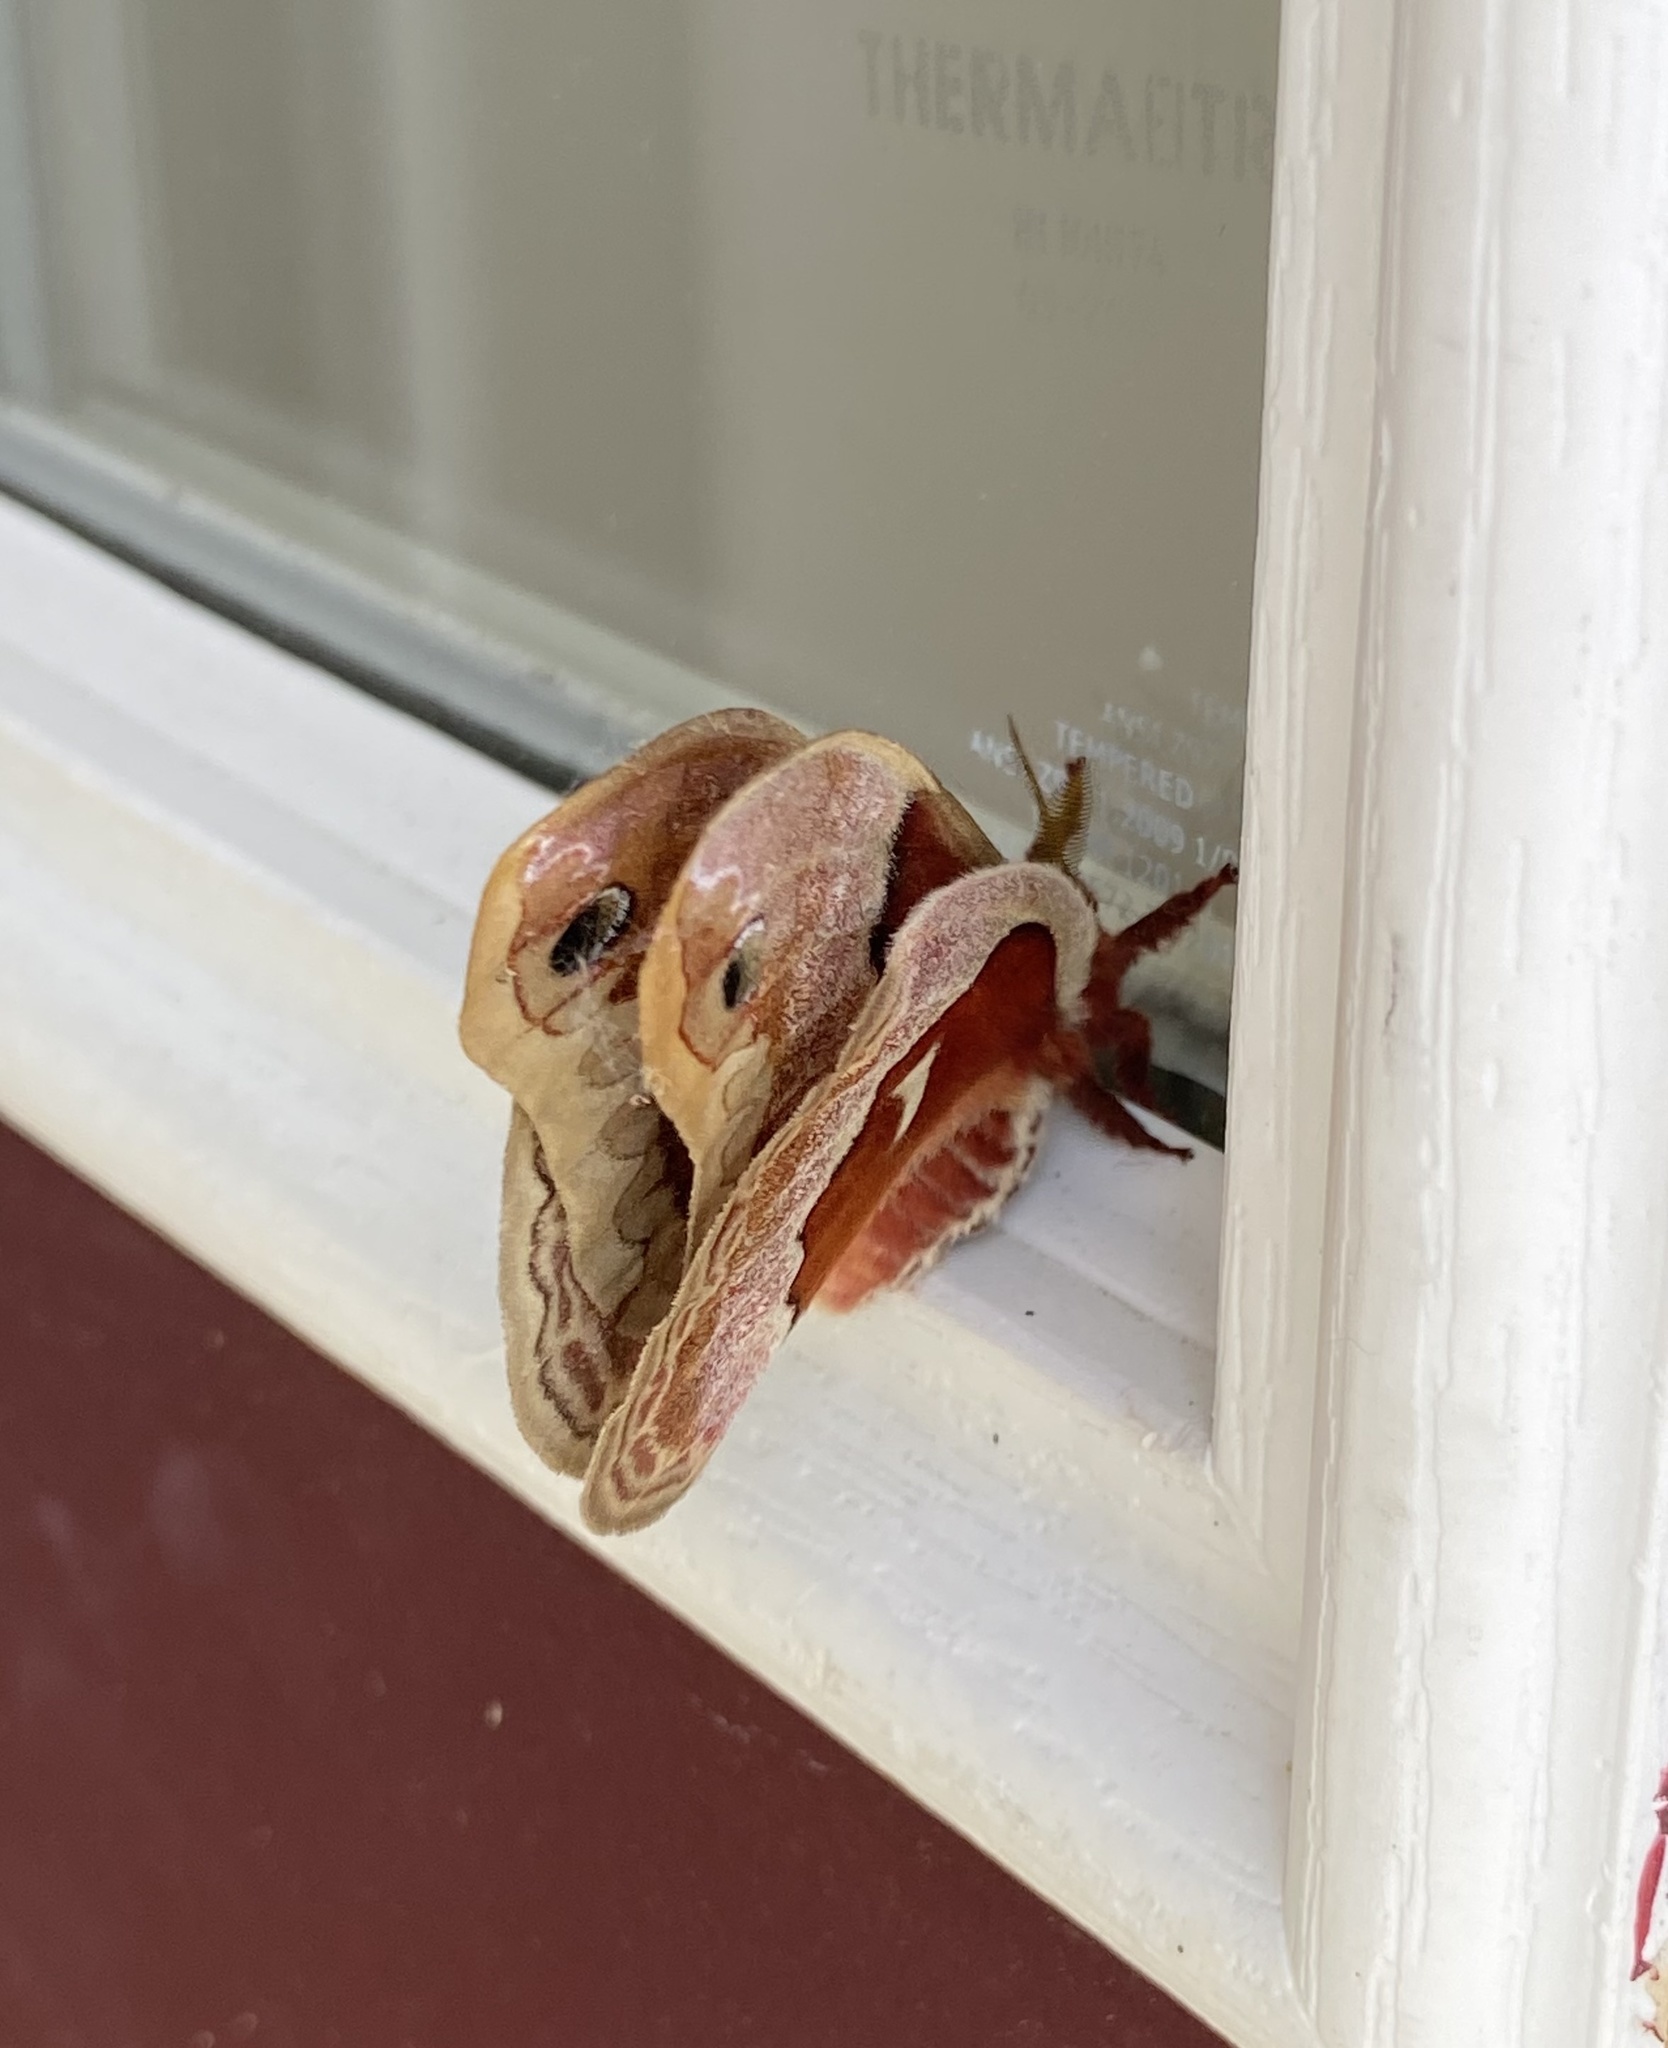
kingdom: Animalia
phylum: Arthropoda
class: Insecta
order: Lepidoptera
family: Saturniidae
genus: Callosamia
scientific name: Callosamia promethea
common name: Promethea silkmoth
